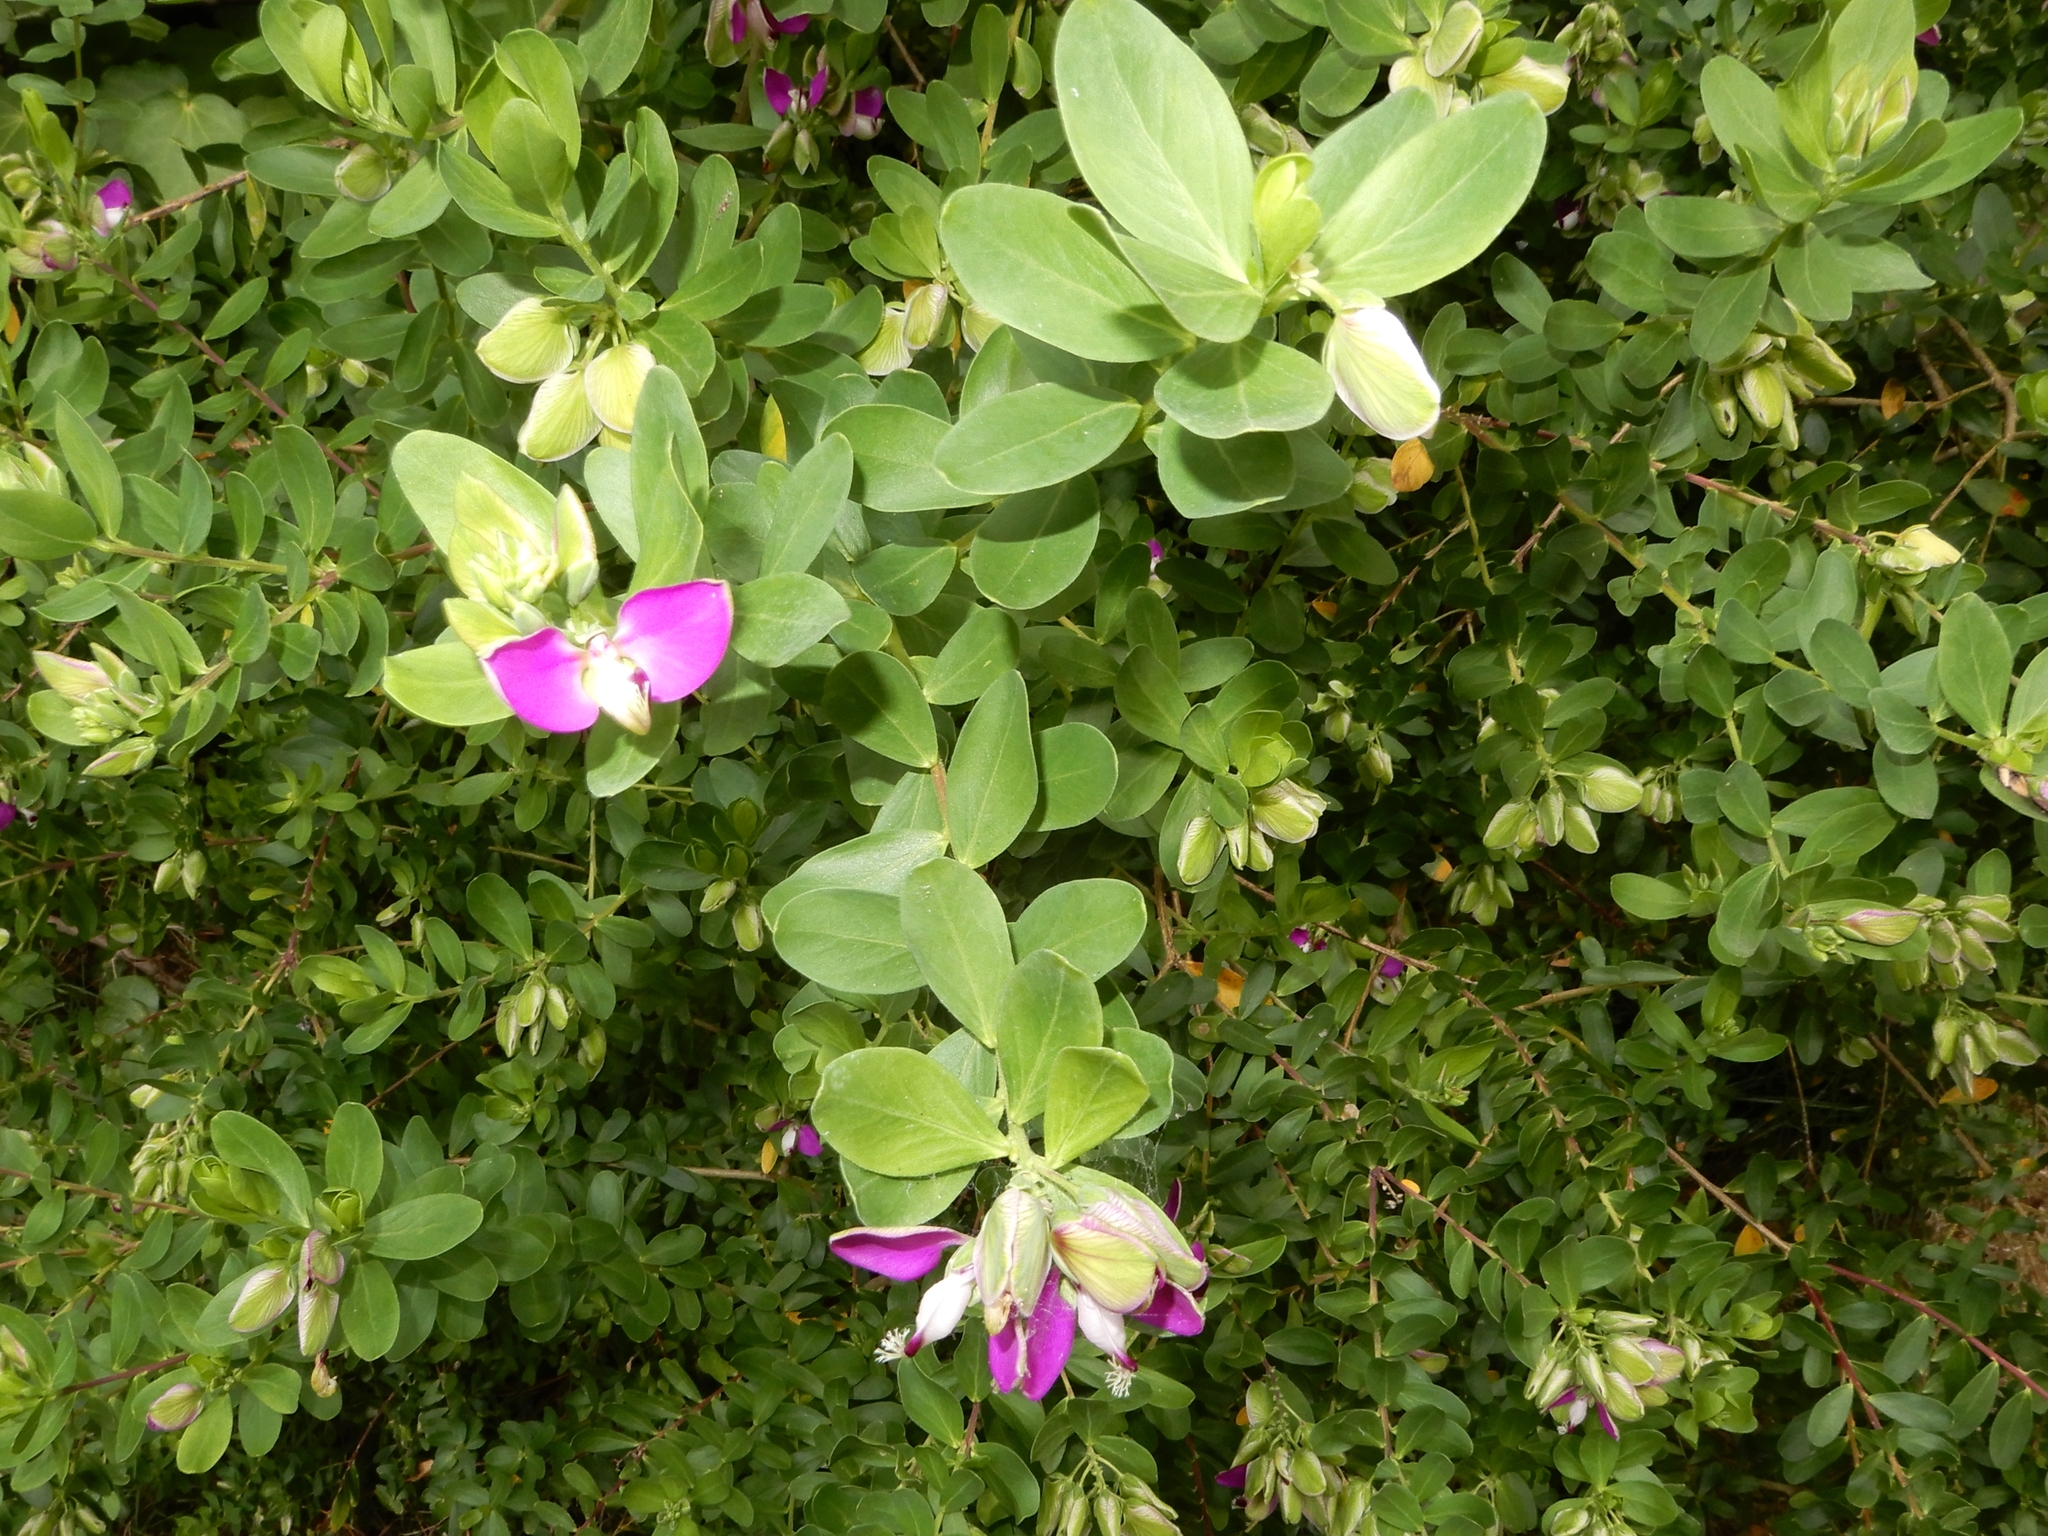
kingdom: Plantae
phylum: Tracheophyta
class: Magnoliopsida
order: Fabales
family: Polygalaceae
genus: Polygala
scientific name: Polygala myrtifolia
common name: Myrtle-leaf milkwort
